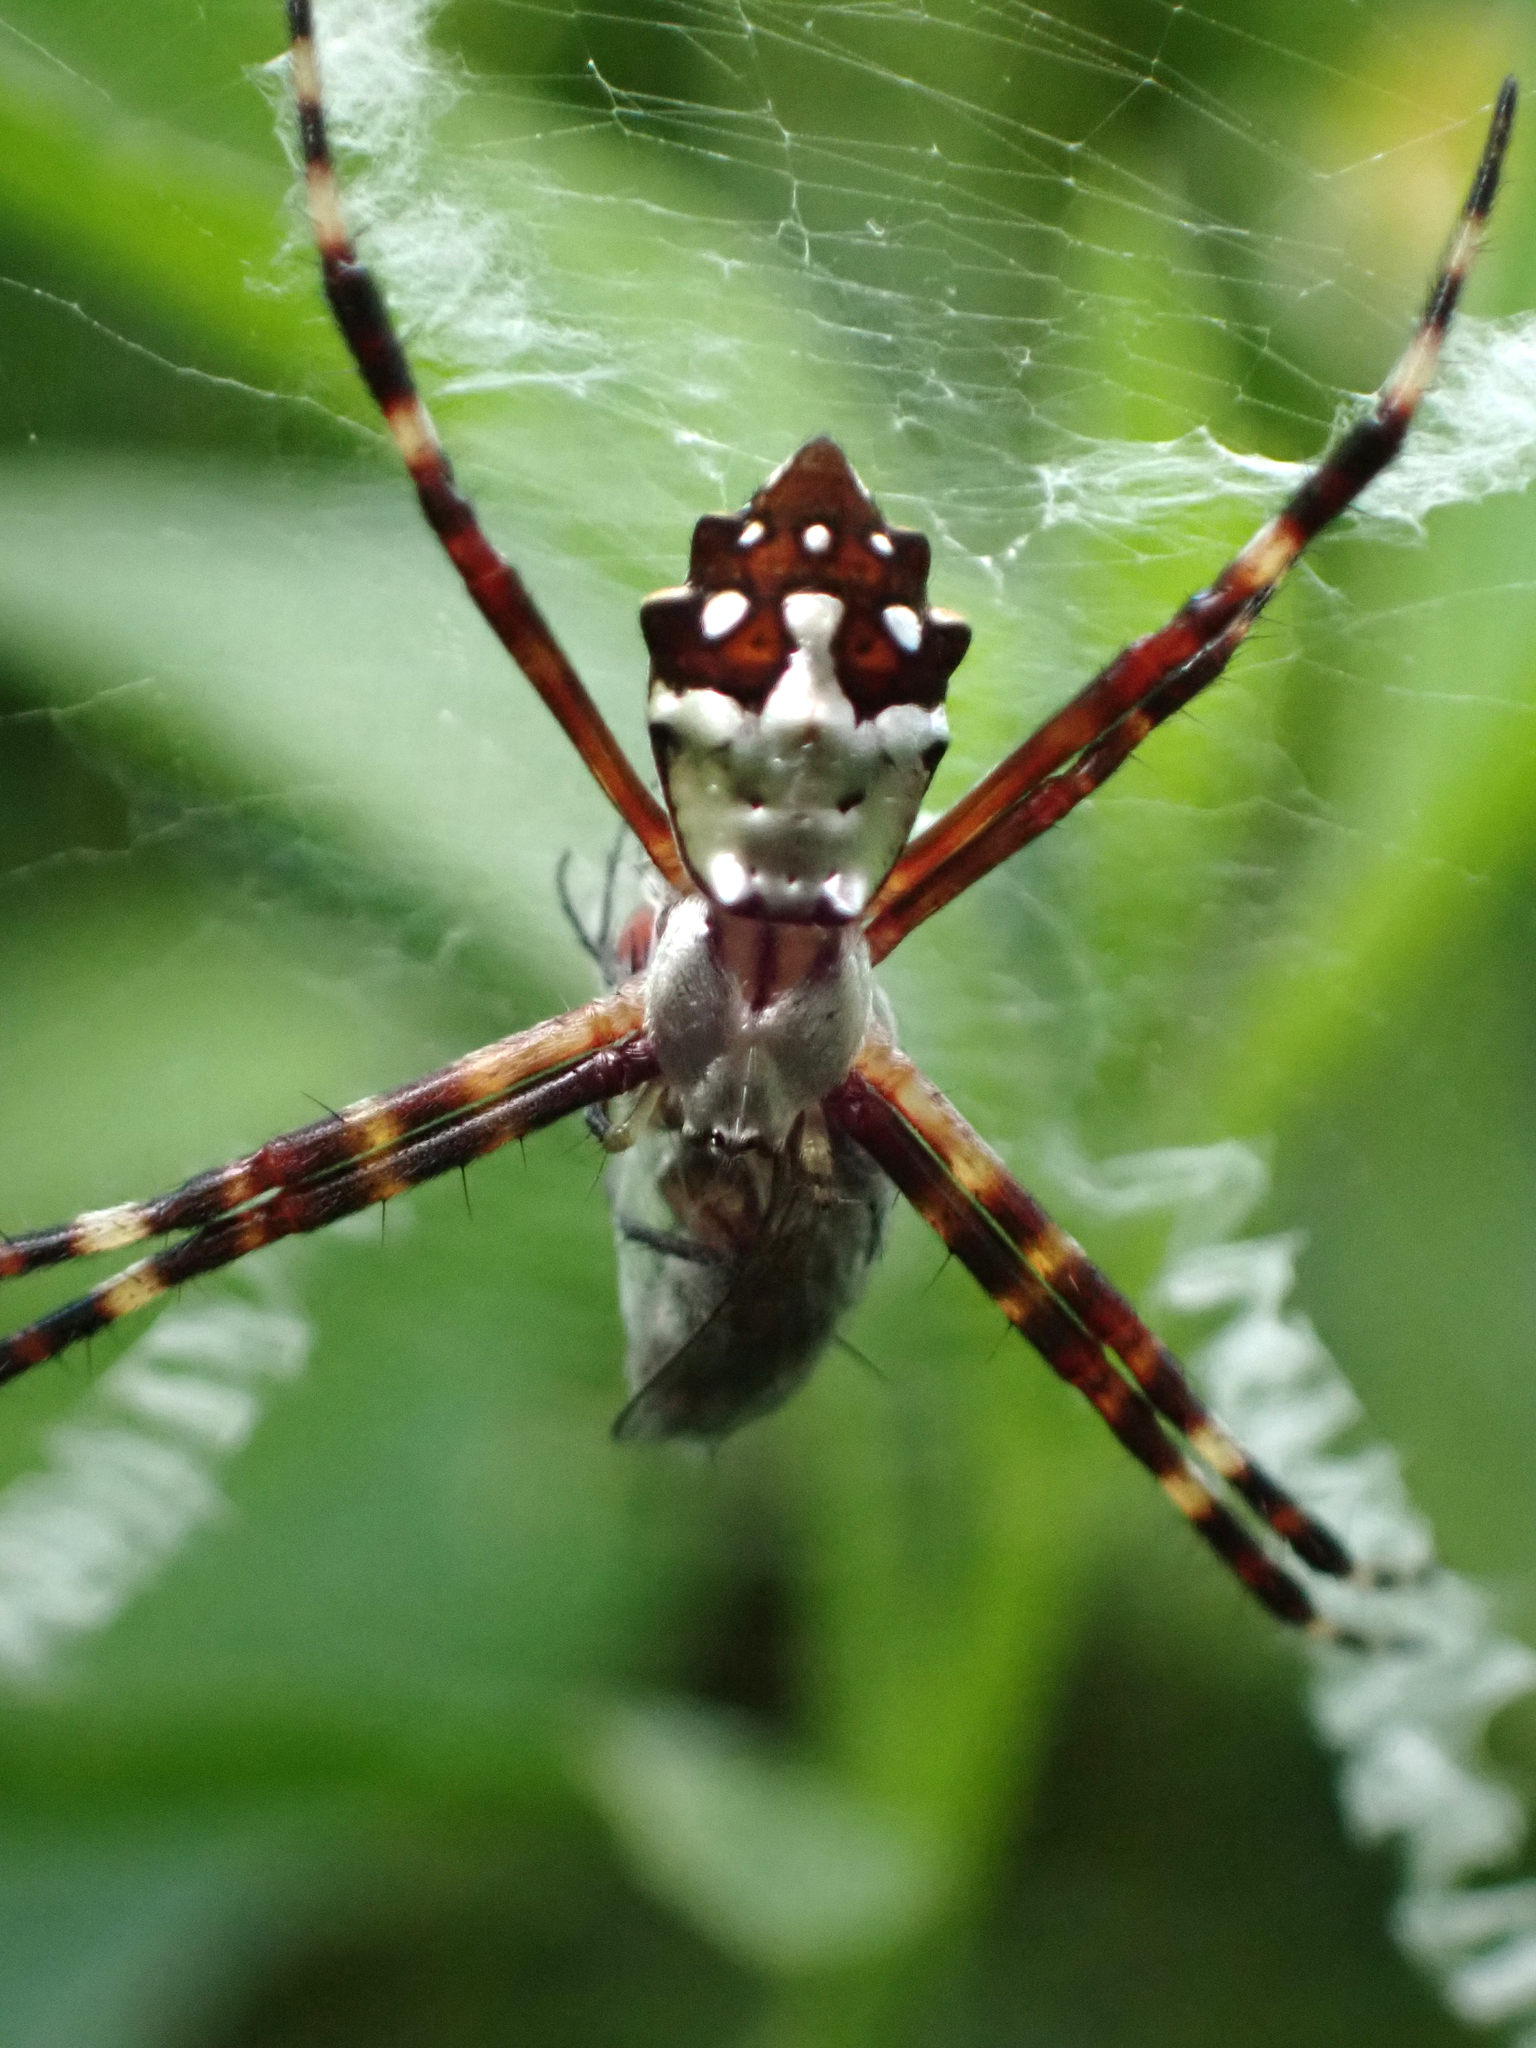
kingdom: Animalia
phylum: Arthropoda
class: Arachnida
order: Araneae
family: Araneidae
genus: Argiope
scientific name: Argiope argentata
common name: Orb weavers
